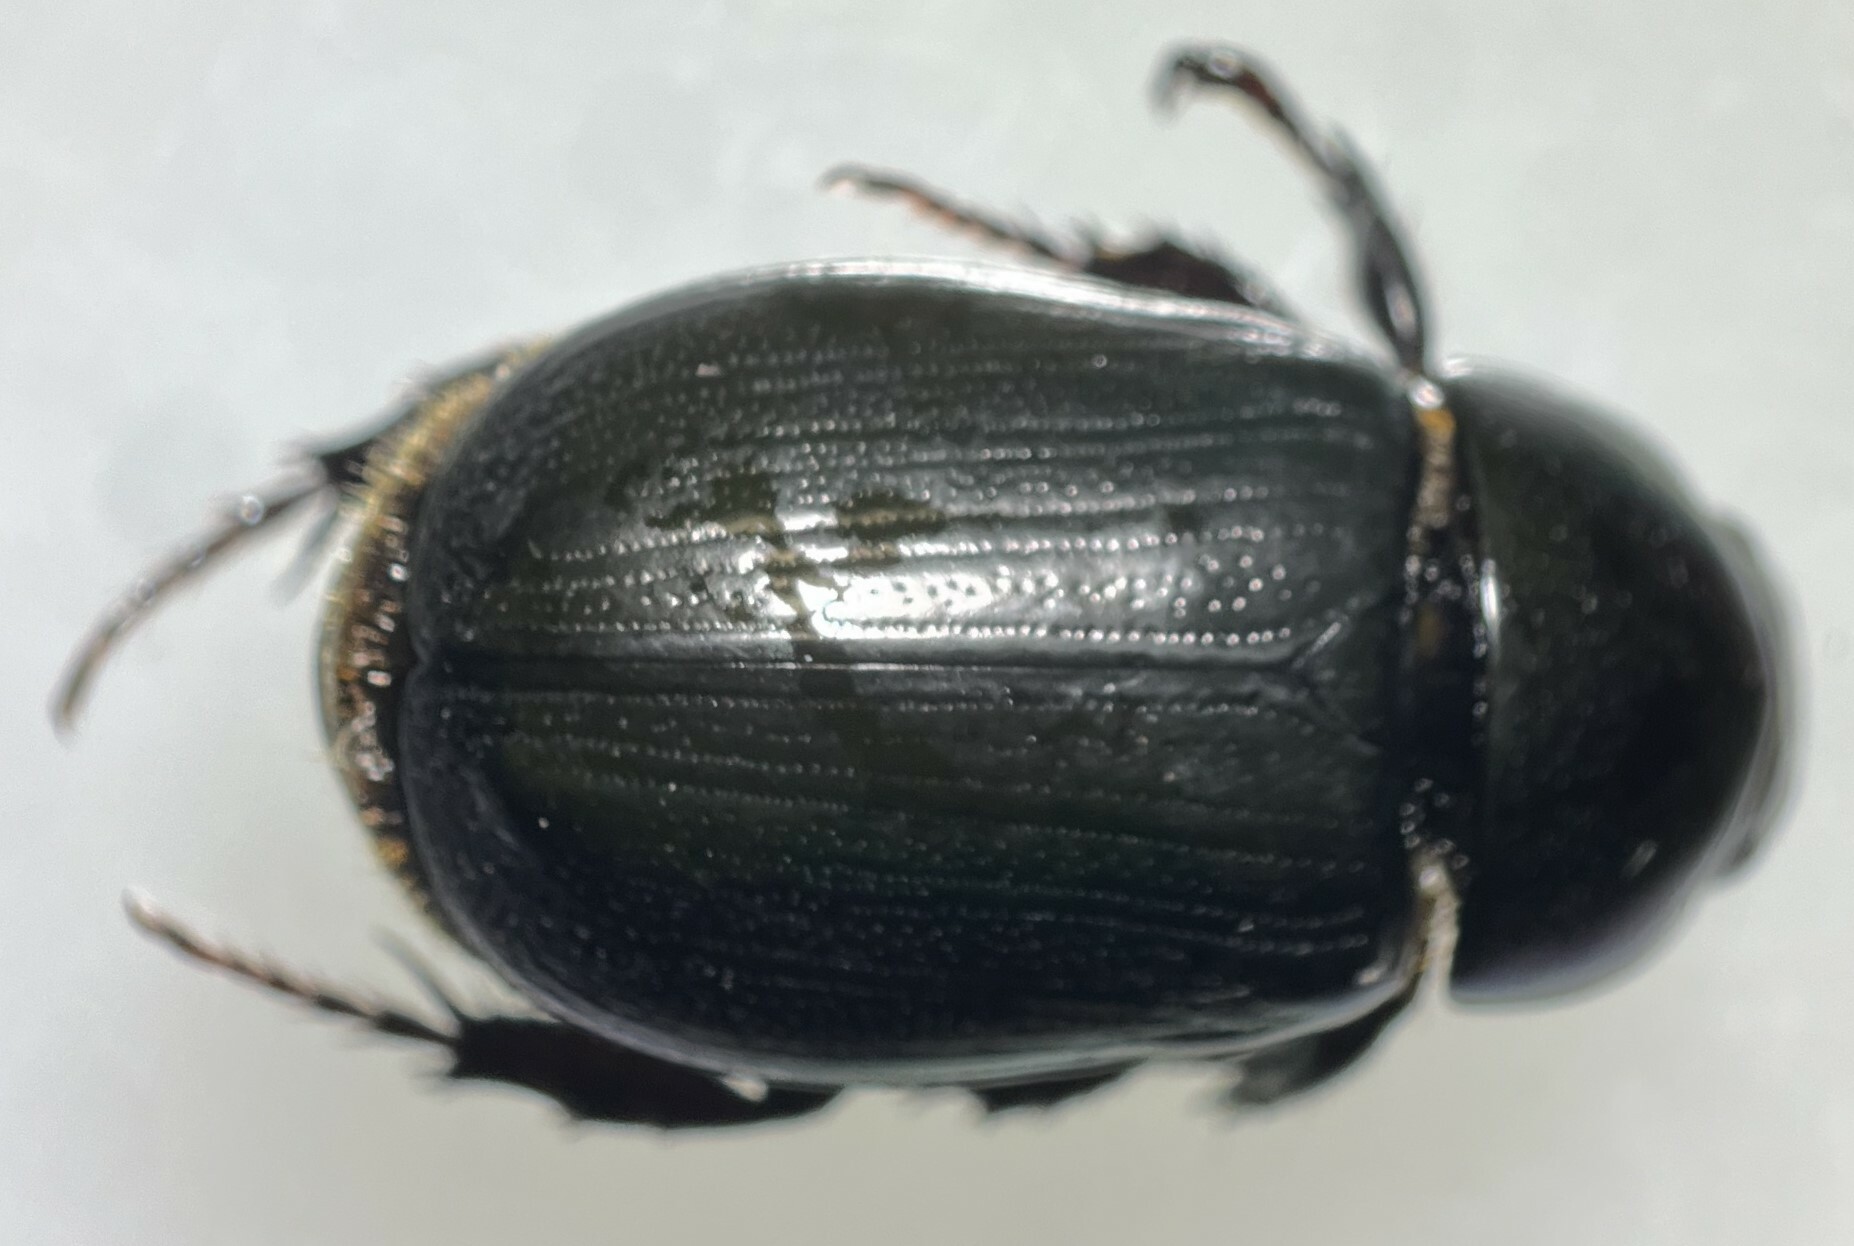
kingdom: Animalia
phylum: Arthropoda
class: Insecta
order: Coleoptera
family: Scarabaeidae
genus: Dyscinetus
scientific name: Dyscinetus morator
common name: Rice beetle
